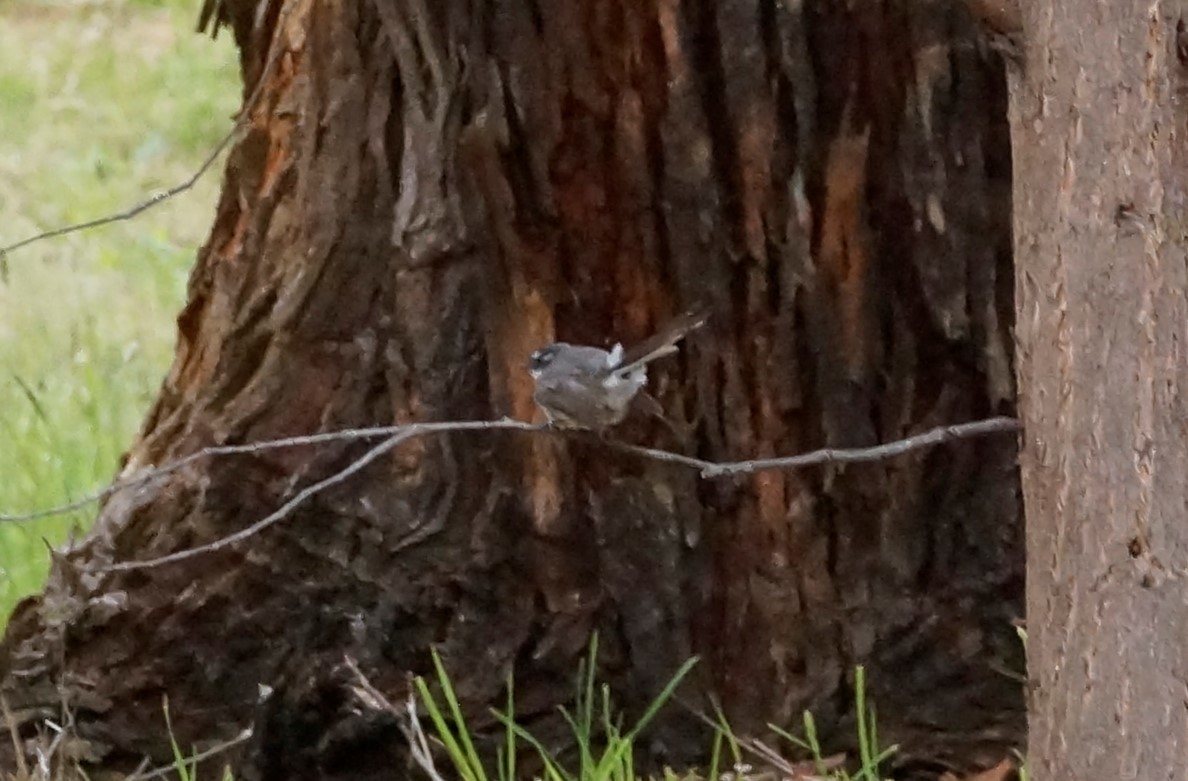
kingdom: Animalia
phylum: Chordata
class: Aves
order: Passeriformes
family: Rhipiduridae
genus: Rhipidura
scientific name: Rhipidura albiscapa
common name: Grey fantail
